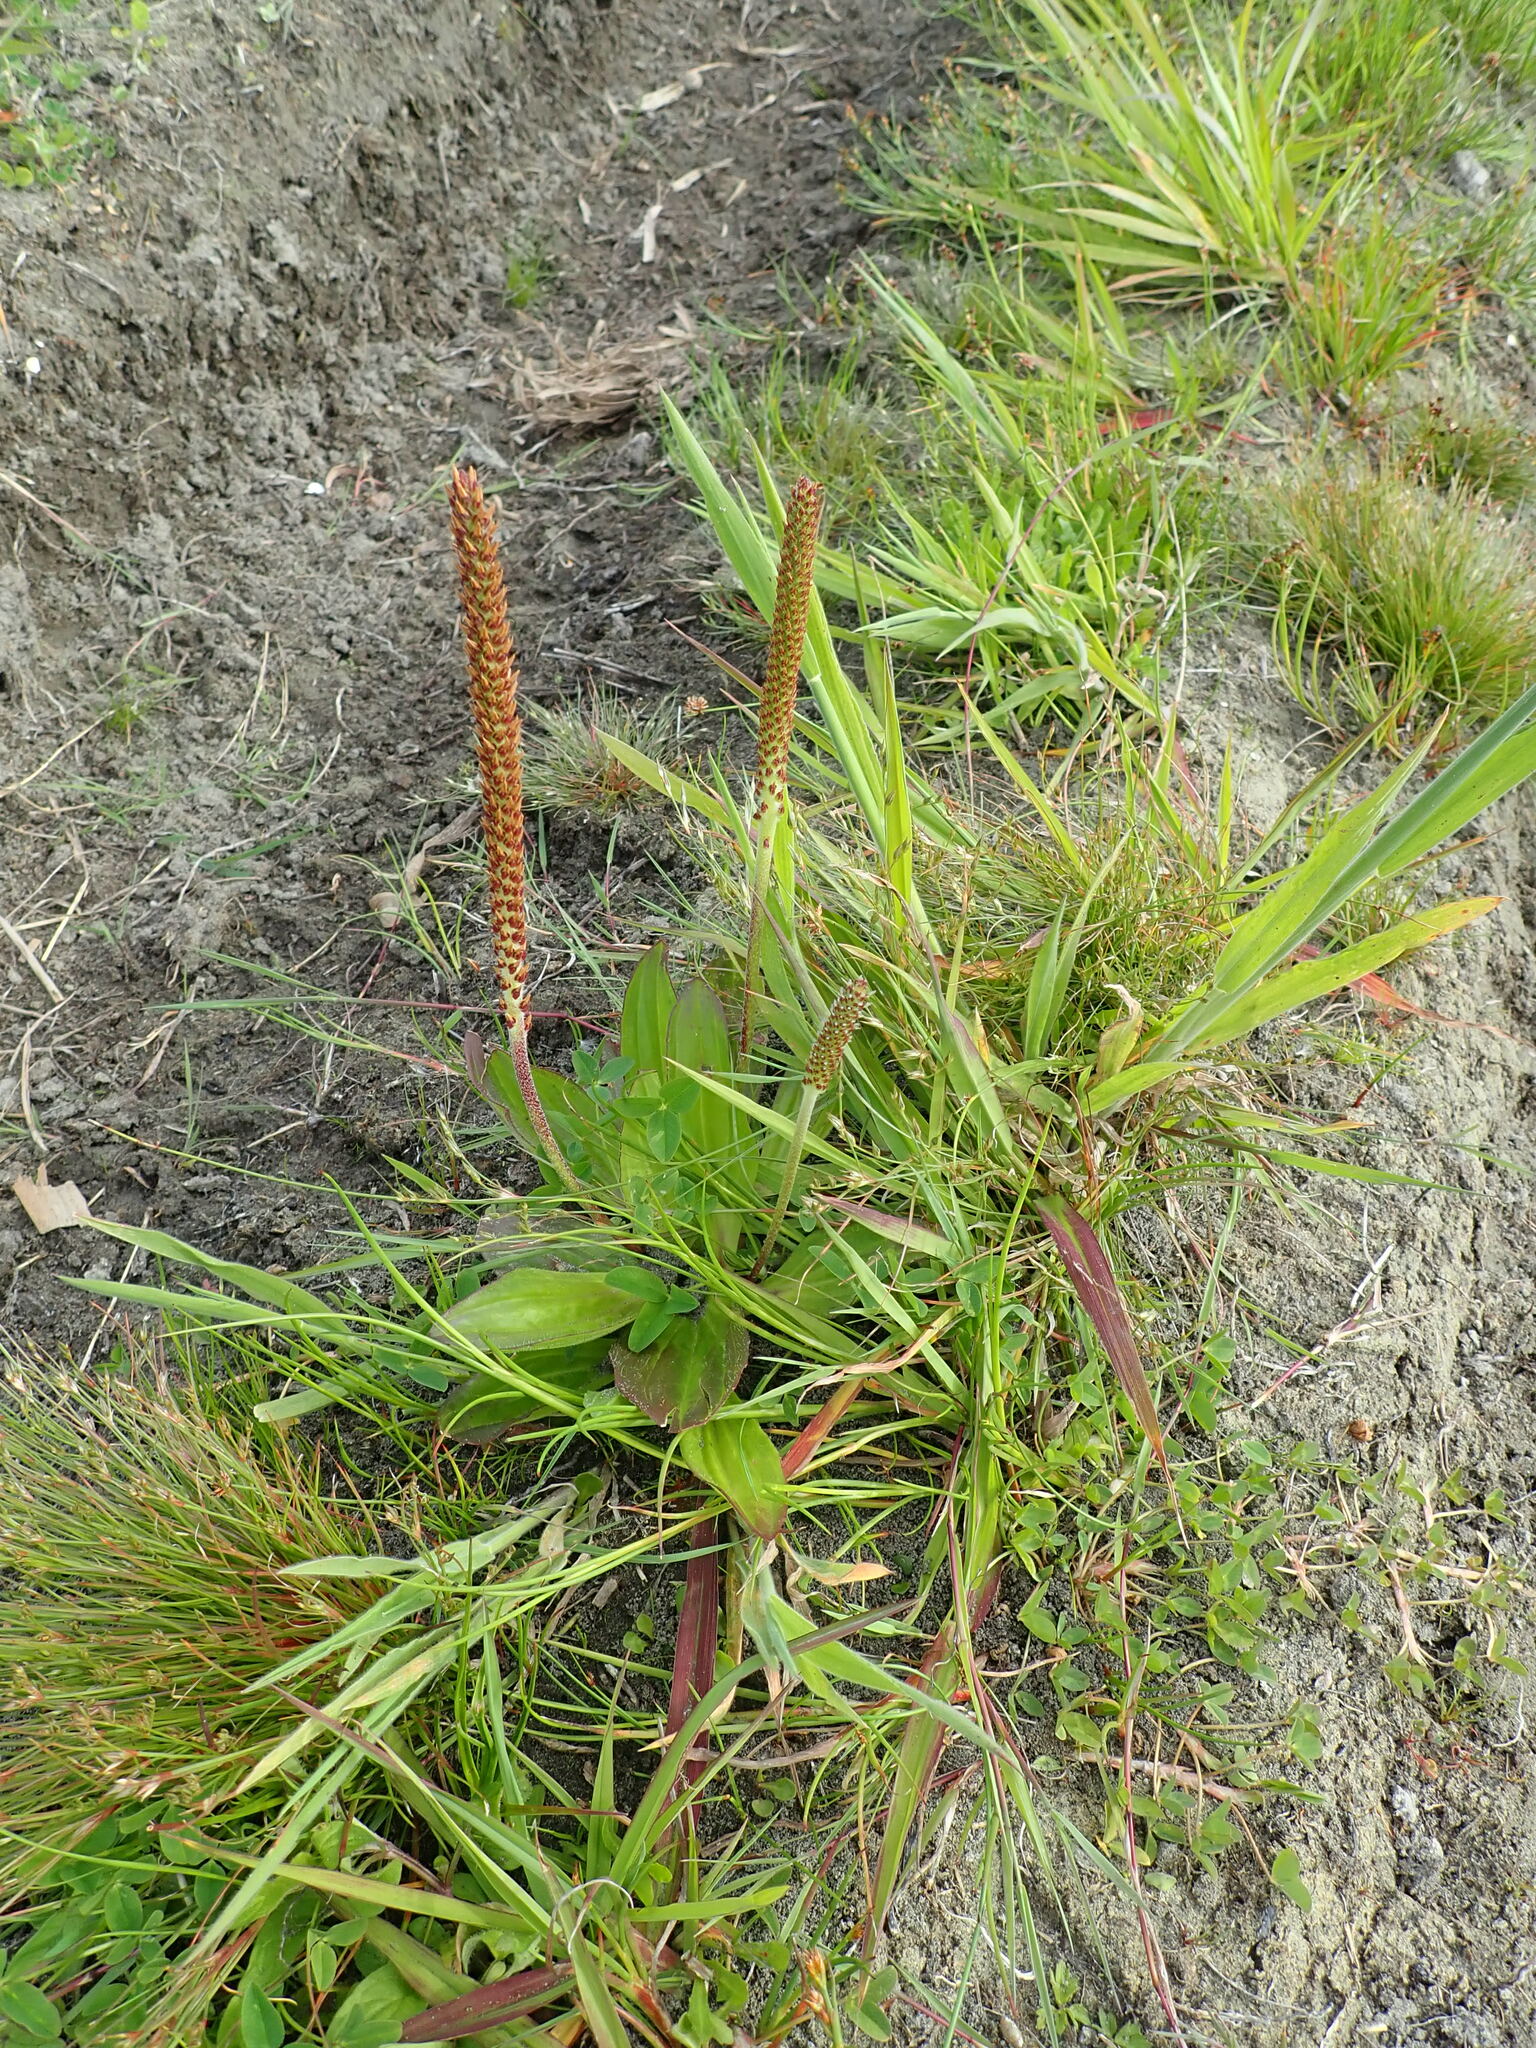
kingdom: Plantae
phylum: Tracheophyta
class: Magnoliopsida
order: Lamiales
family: Plantaginaceae
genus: Plantago
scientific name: Plantago australis
